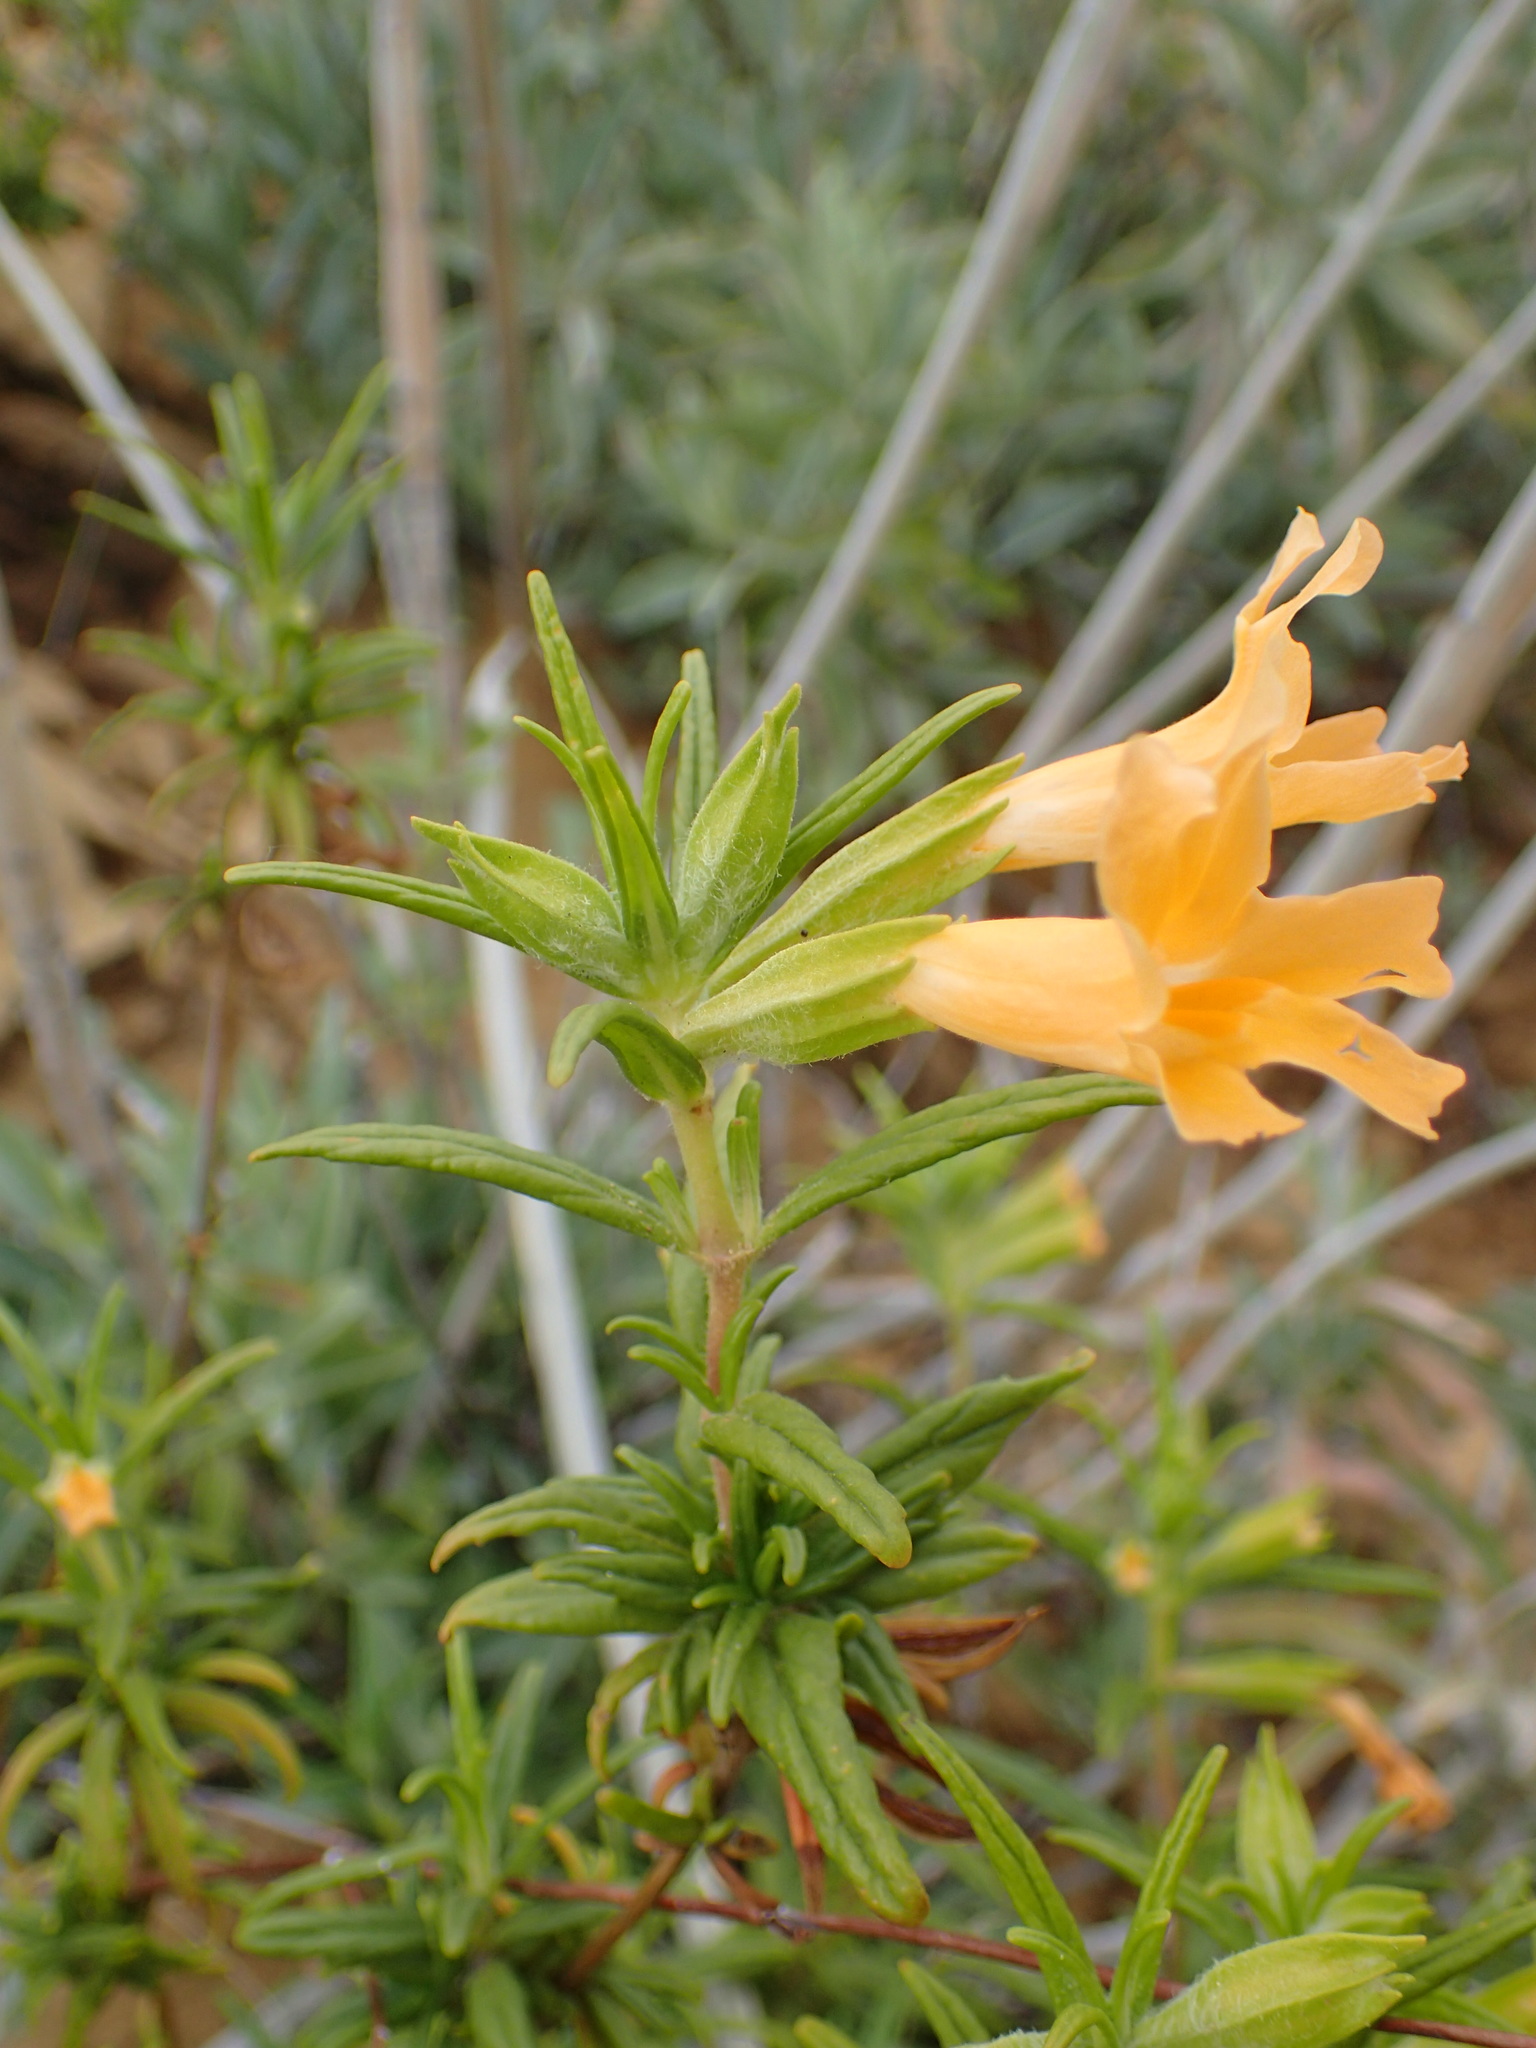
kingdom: Plantae
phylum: Tracheophyta
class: Magnoliopsida
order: Lamiales
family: Phrymaceae
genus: Diplacus
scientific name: Diplacus longiflorus
